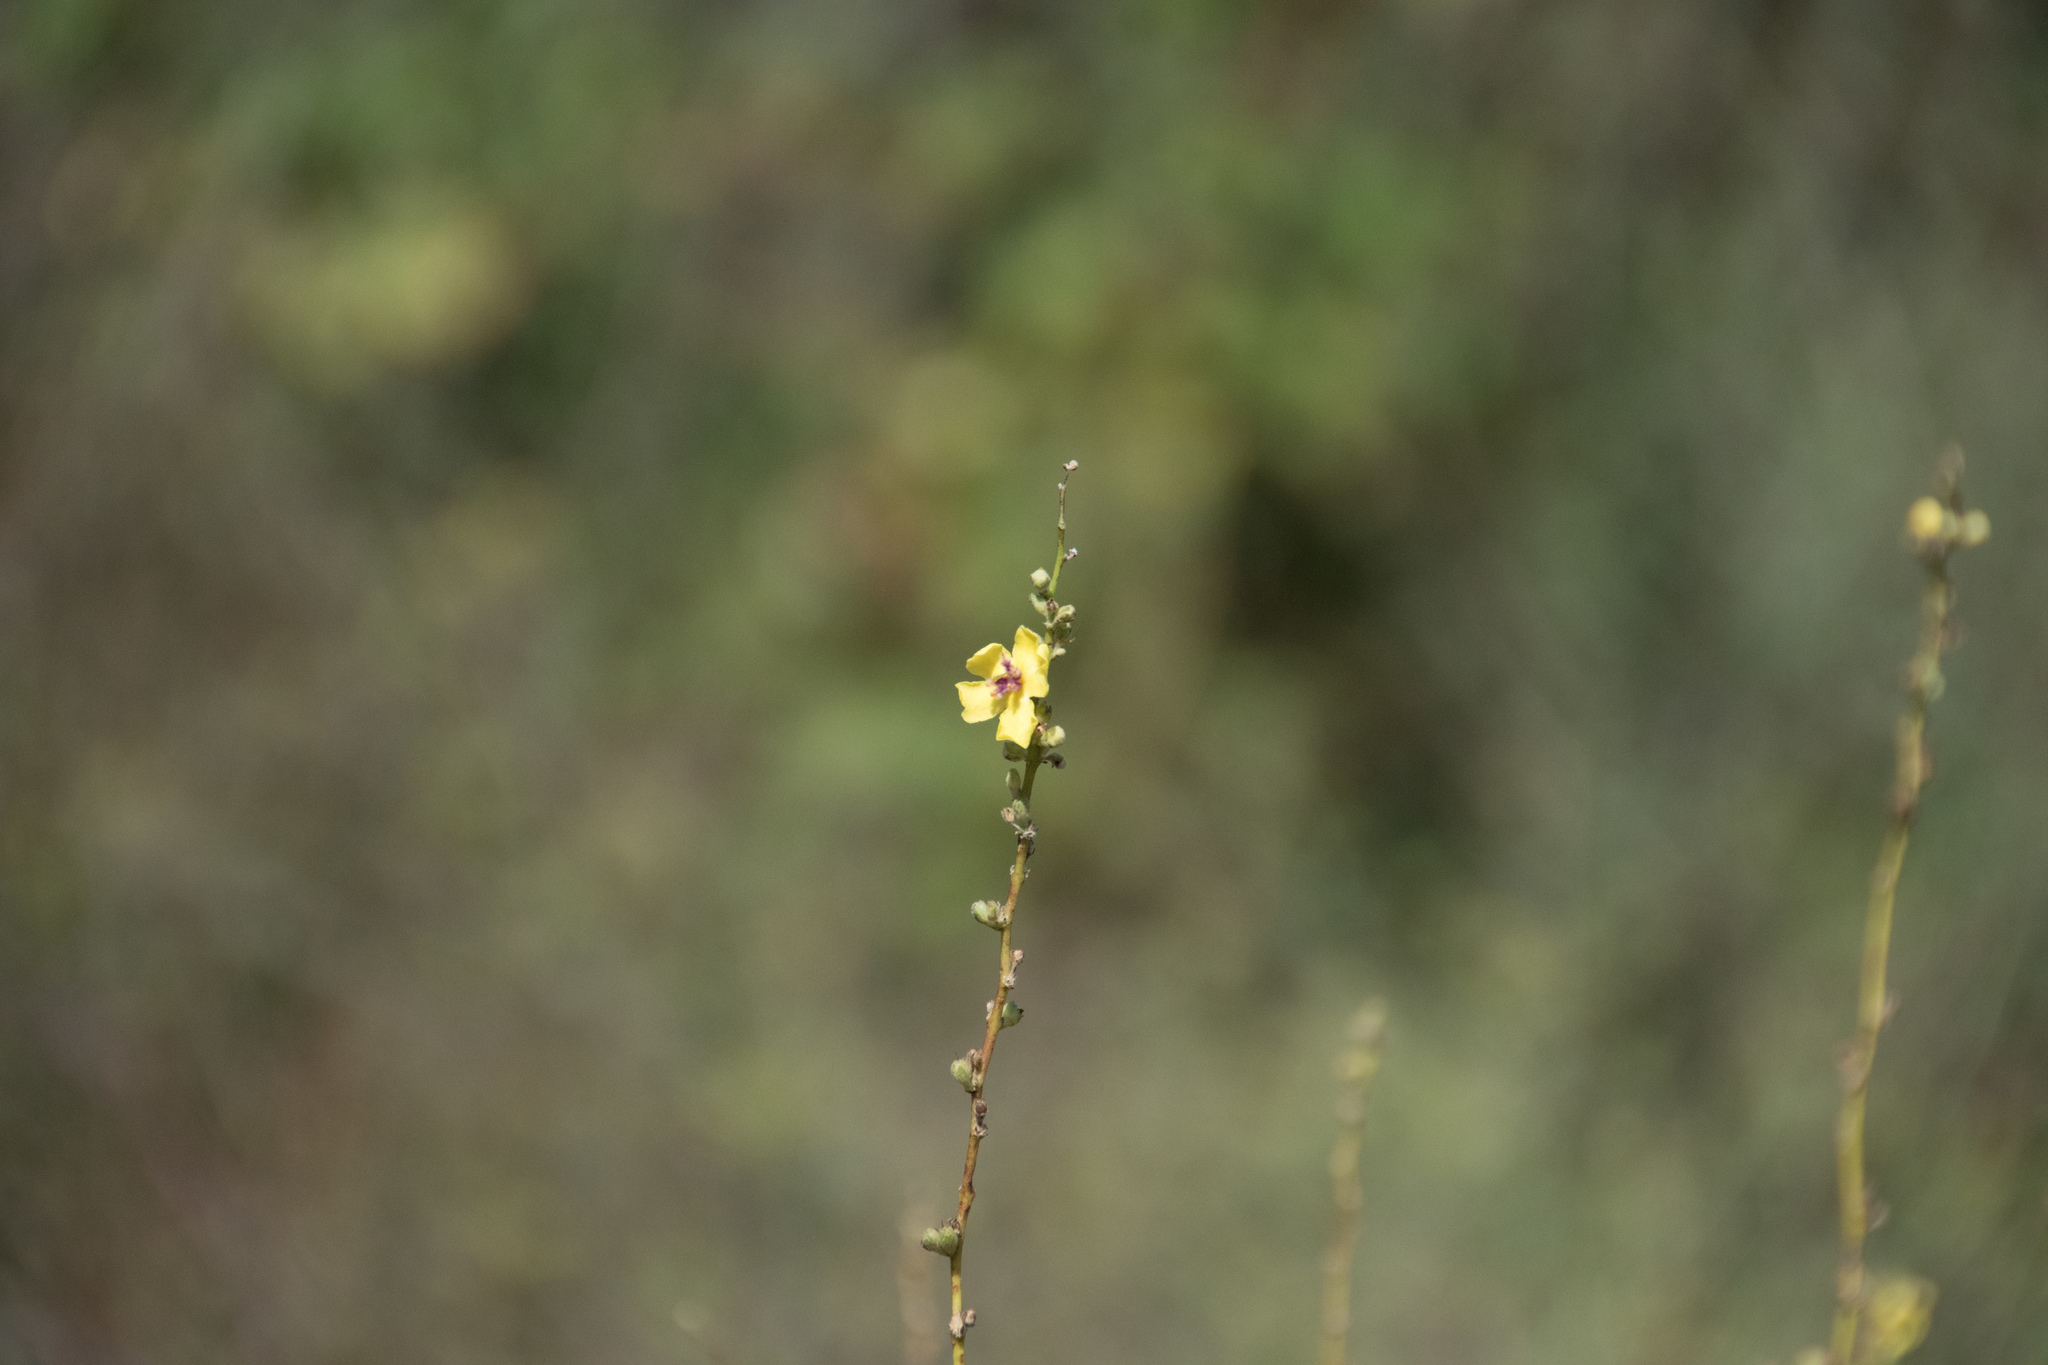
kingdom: Plantae
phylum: Tracheophyta
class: Magnoliopsida
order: Lamiales
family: Scrophulariaceae
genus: Verbascum
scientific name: Verbascum sinuatum
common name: Wavyleaf mullein
